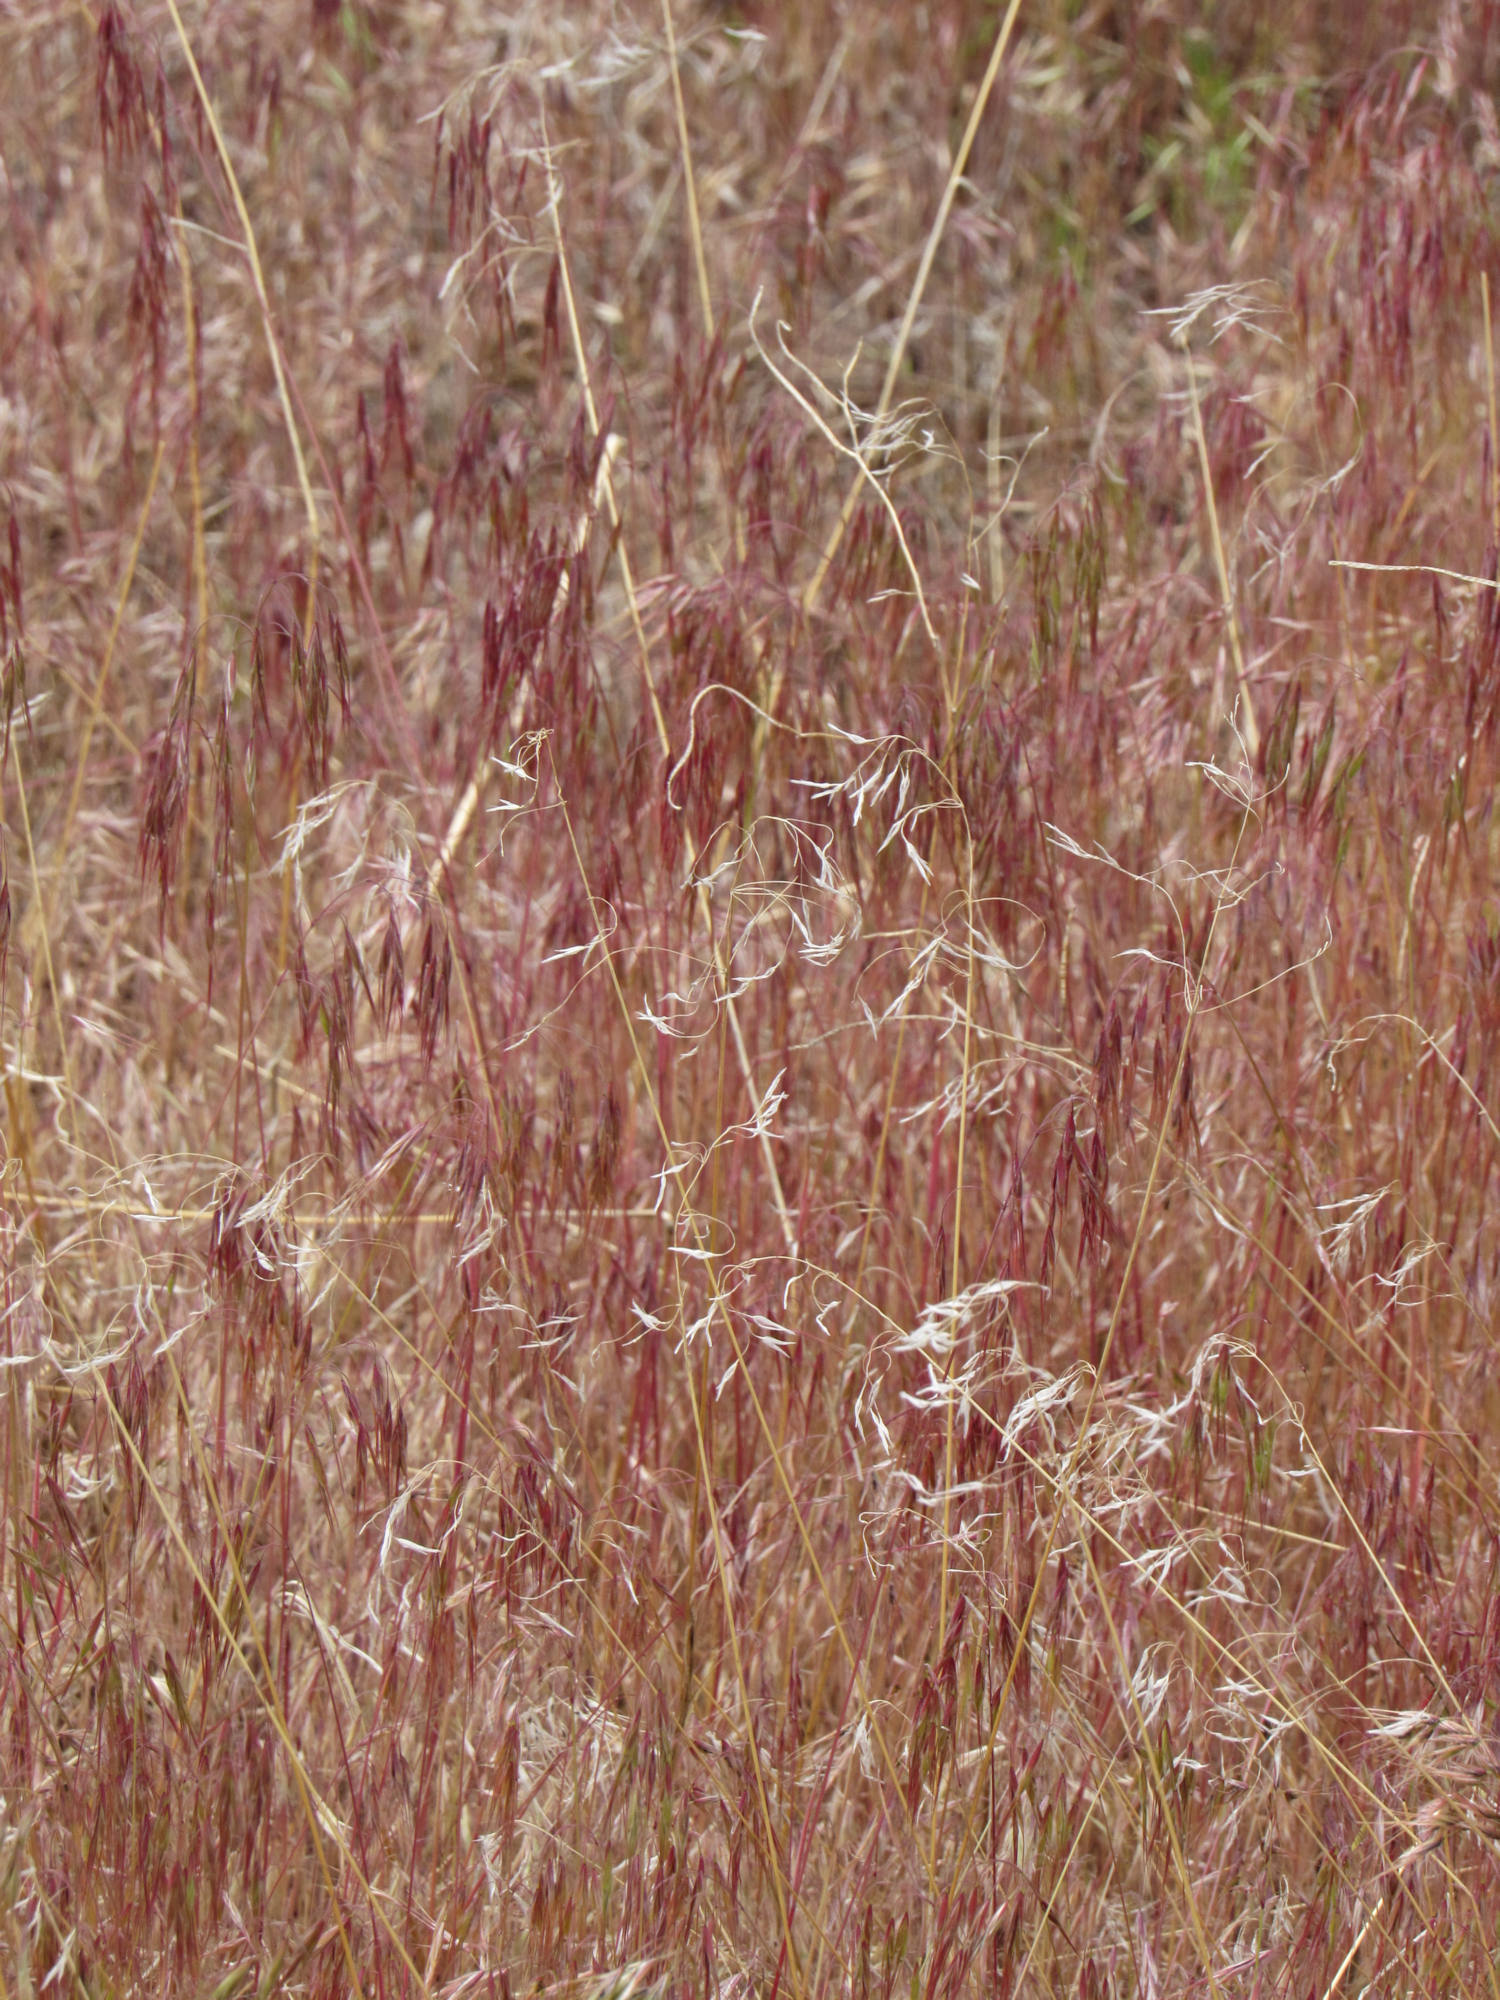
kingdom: Plantae
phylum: Tracheophyta
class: Liliopsida
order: Poales
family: Poaceae
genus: Bromus
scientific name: Bromus tectorum
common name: Cheatgrass
